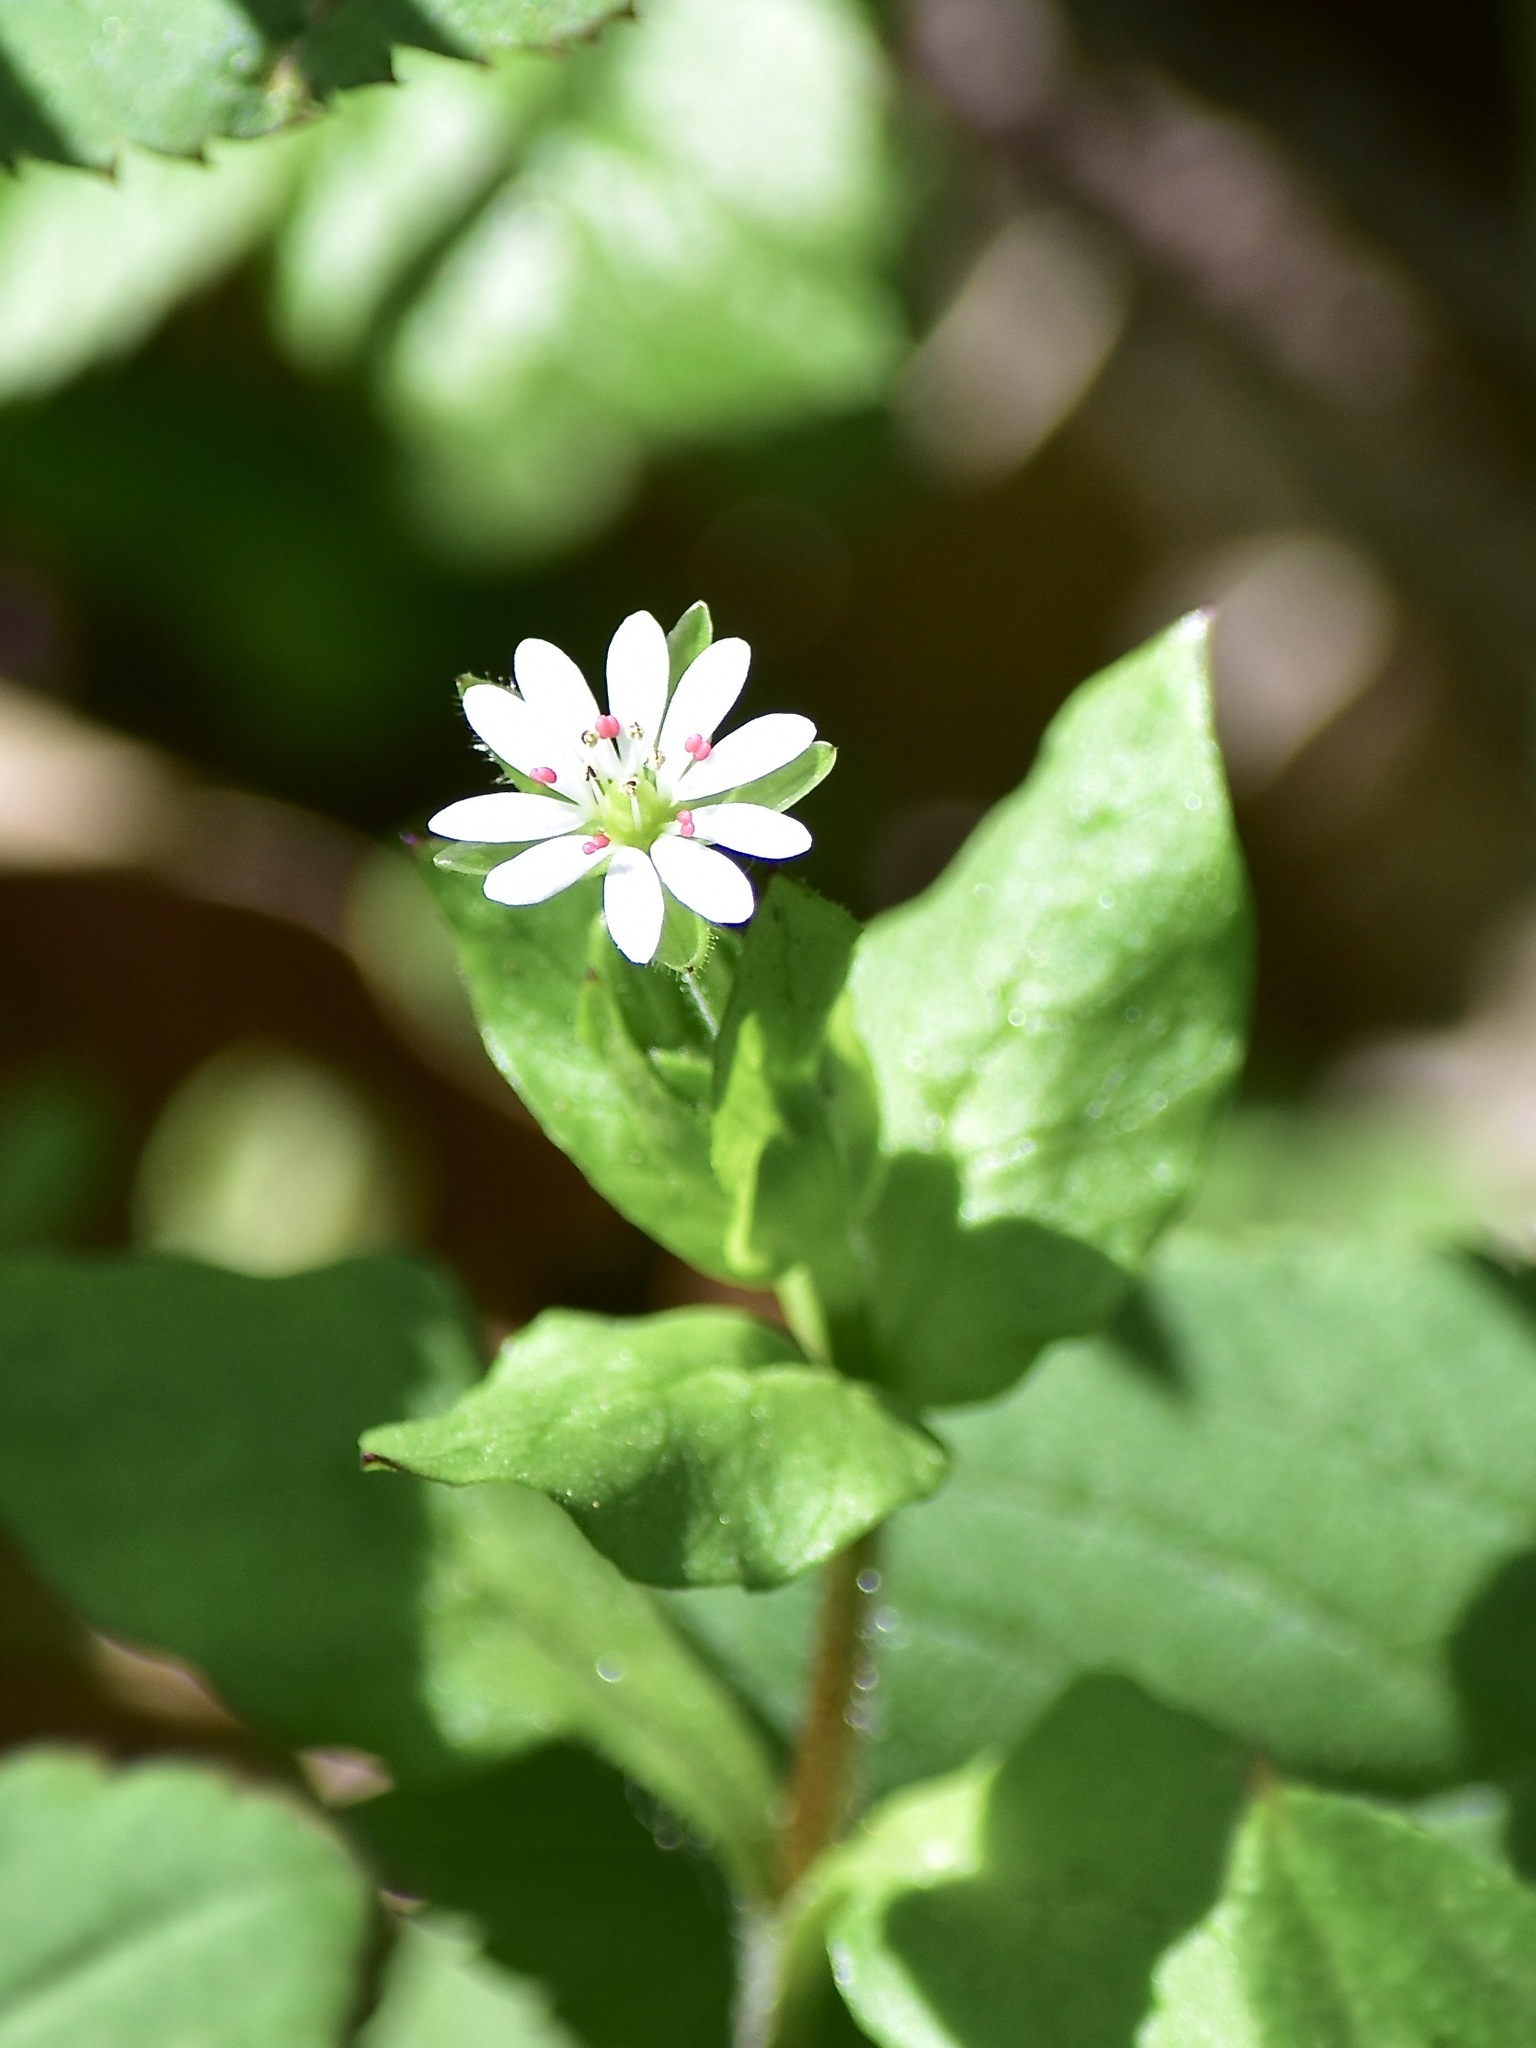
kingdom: Plantae
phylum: Tracheophyta
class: Magnoliopsida
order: Caryophyllales
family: Caryophyllaceae
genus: Stellaria
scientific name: Stellaria neglecta
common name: Greater chickweed
